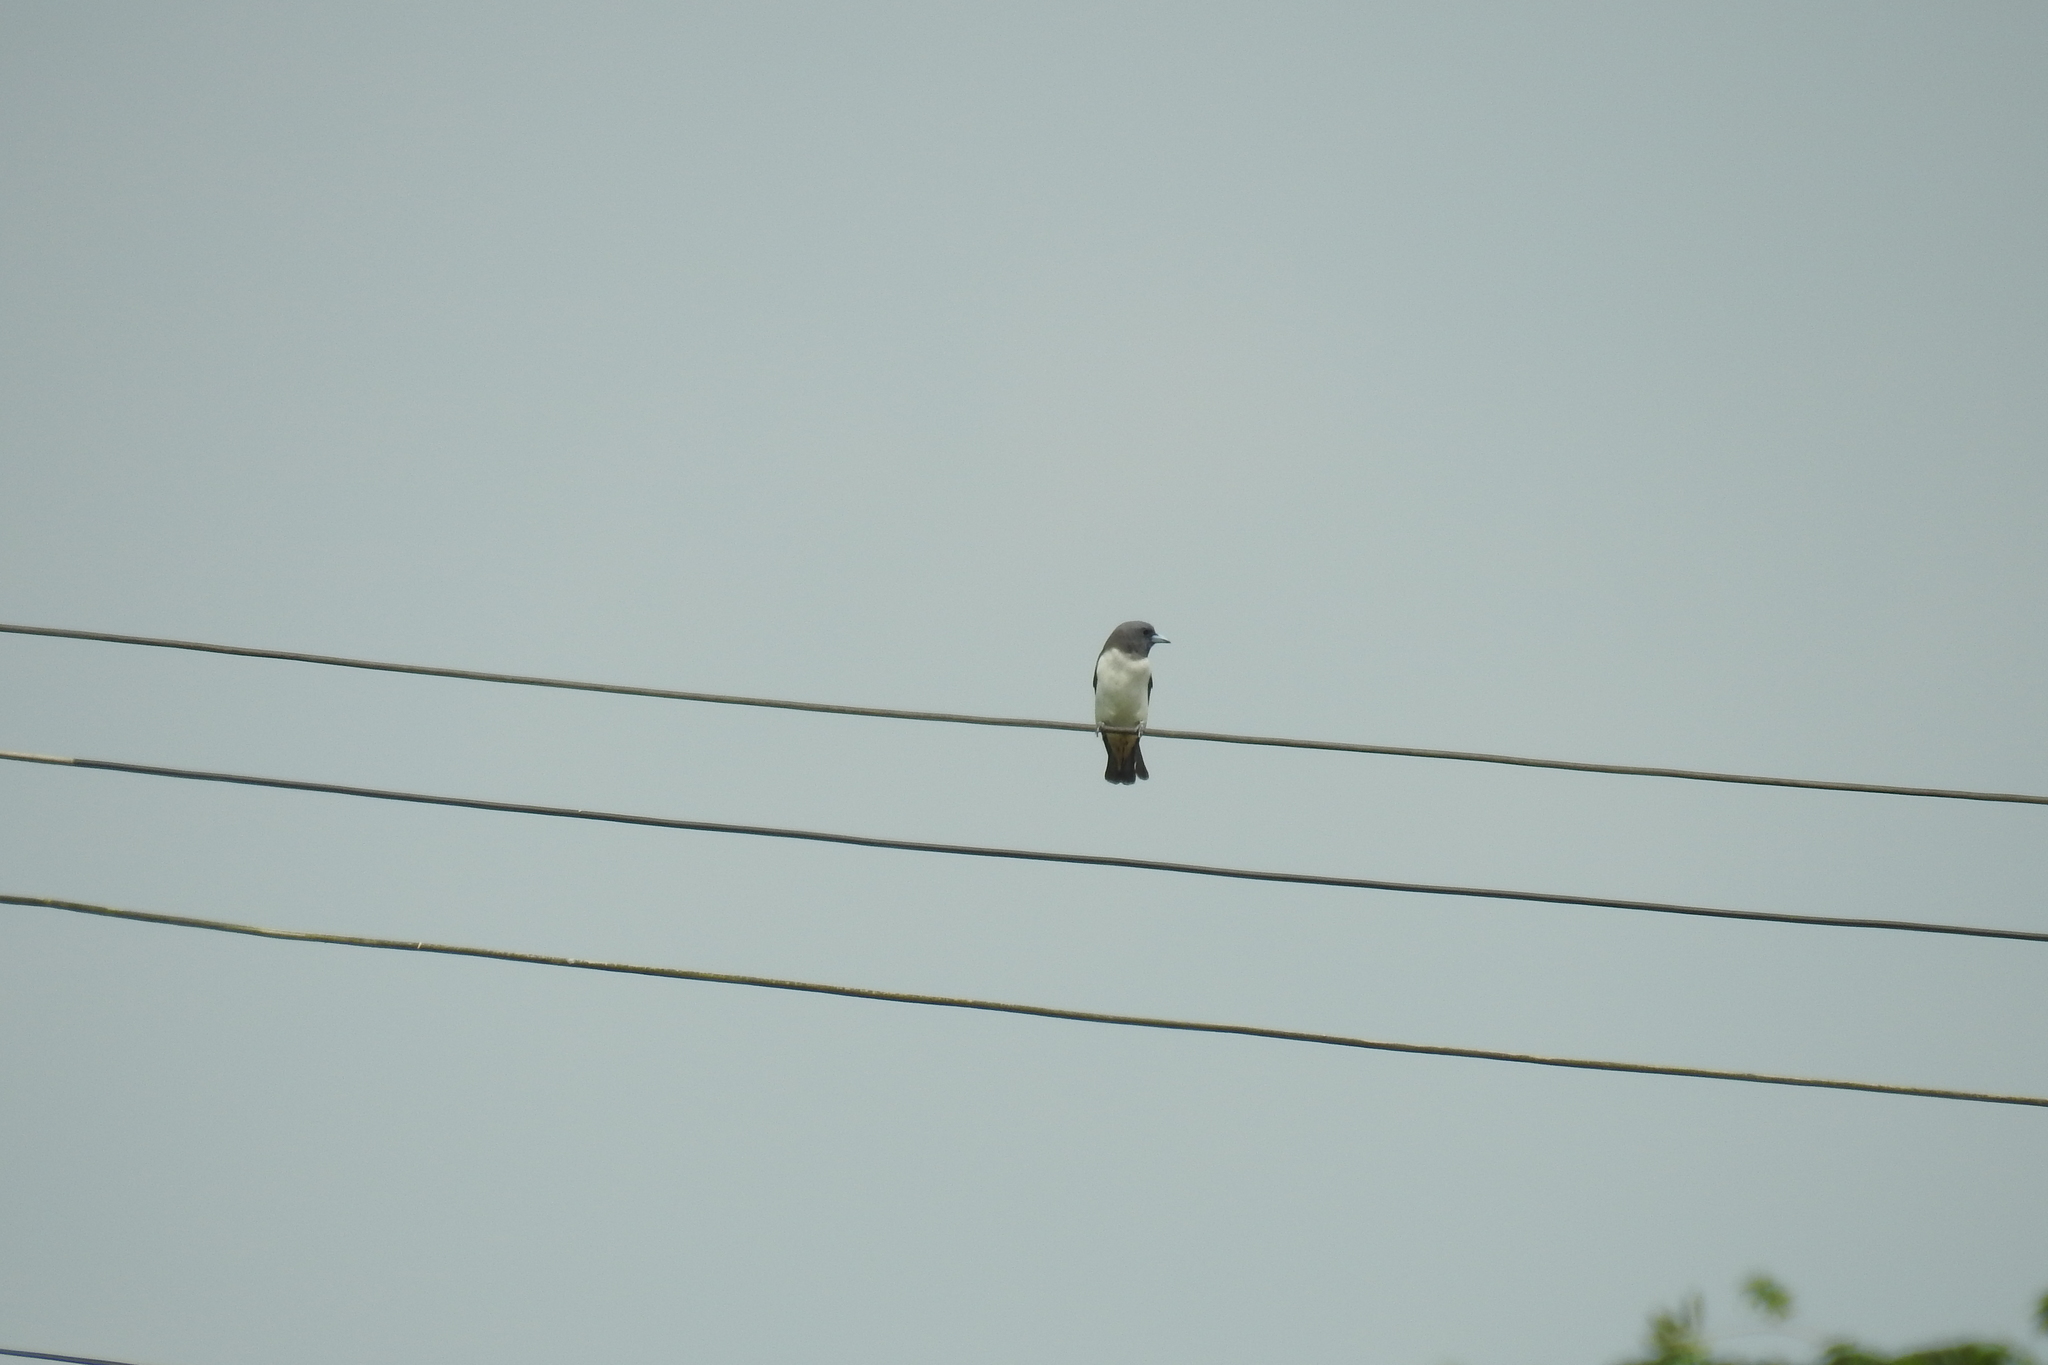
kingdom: Animalia
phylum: Chordata
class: Aves
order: Passeriformes
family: Artamidae
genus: Artamus
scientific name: Artamus leucoryn
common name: White-breasted woodswallow
